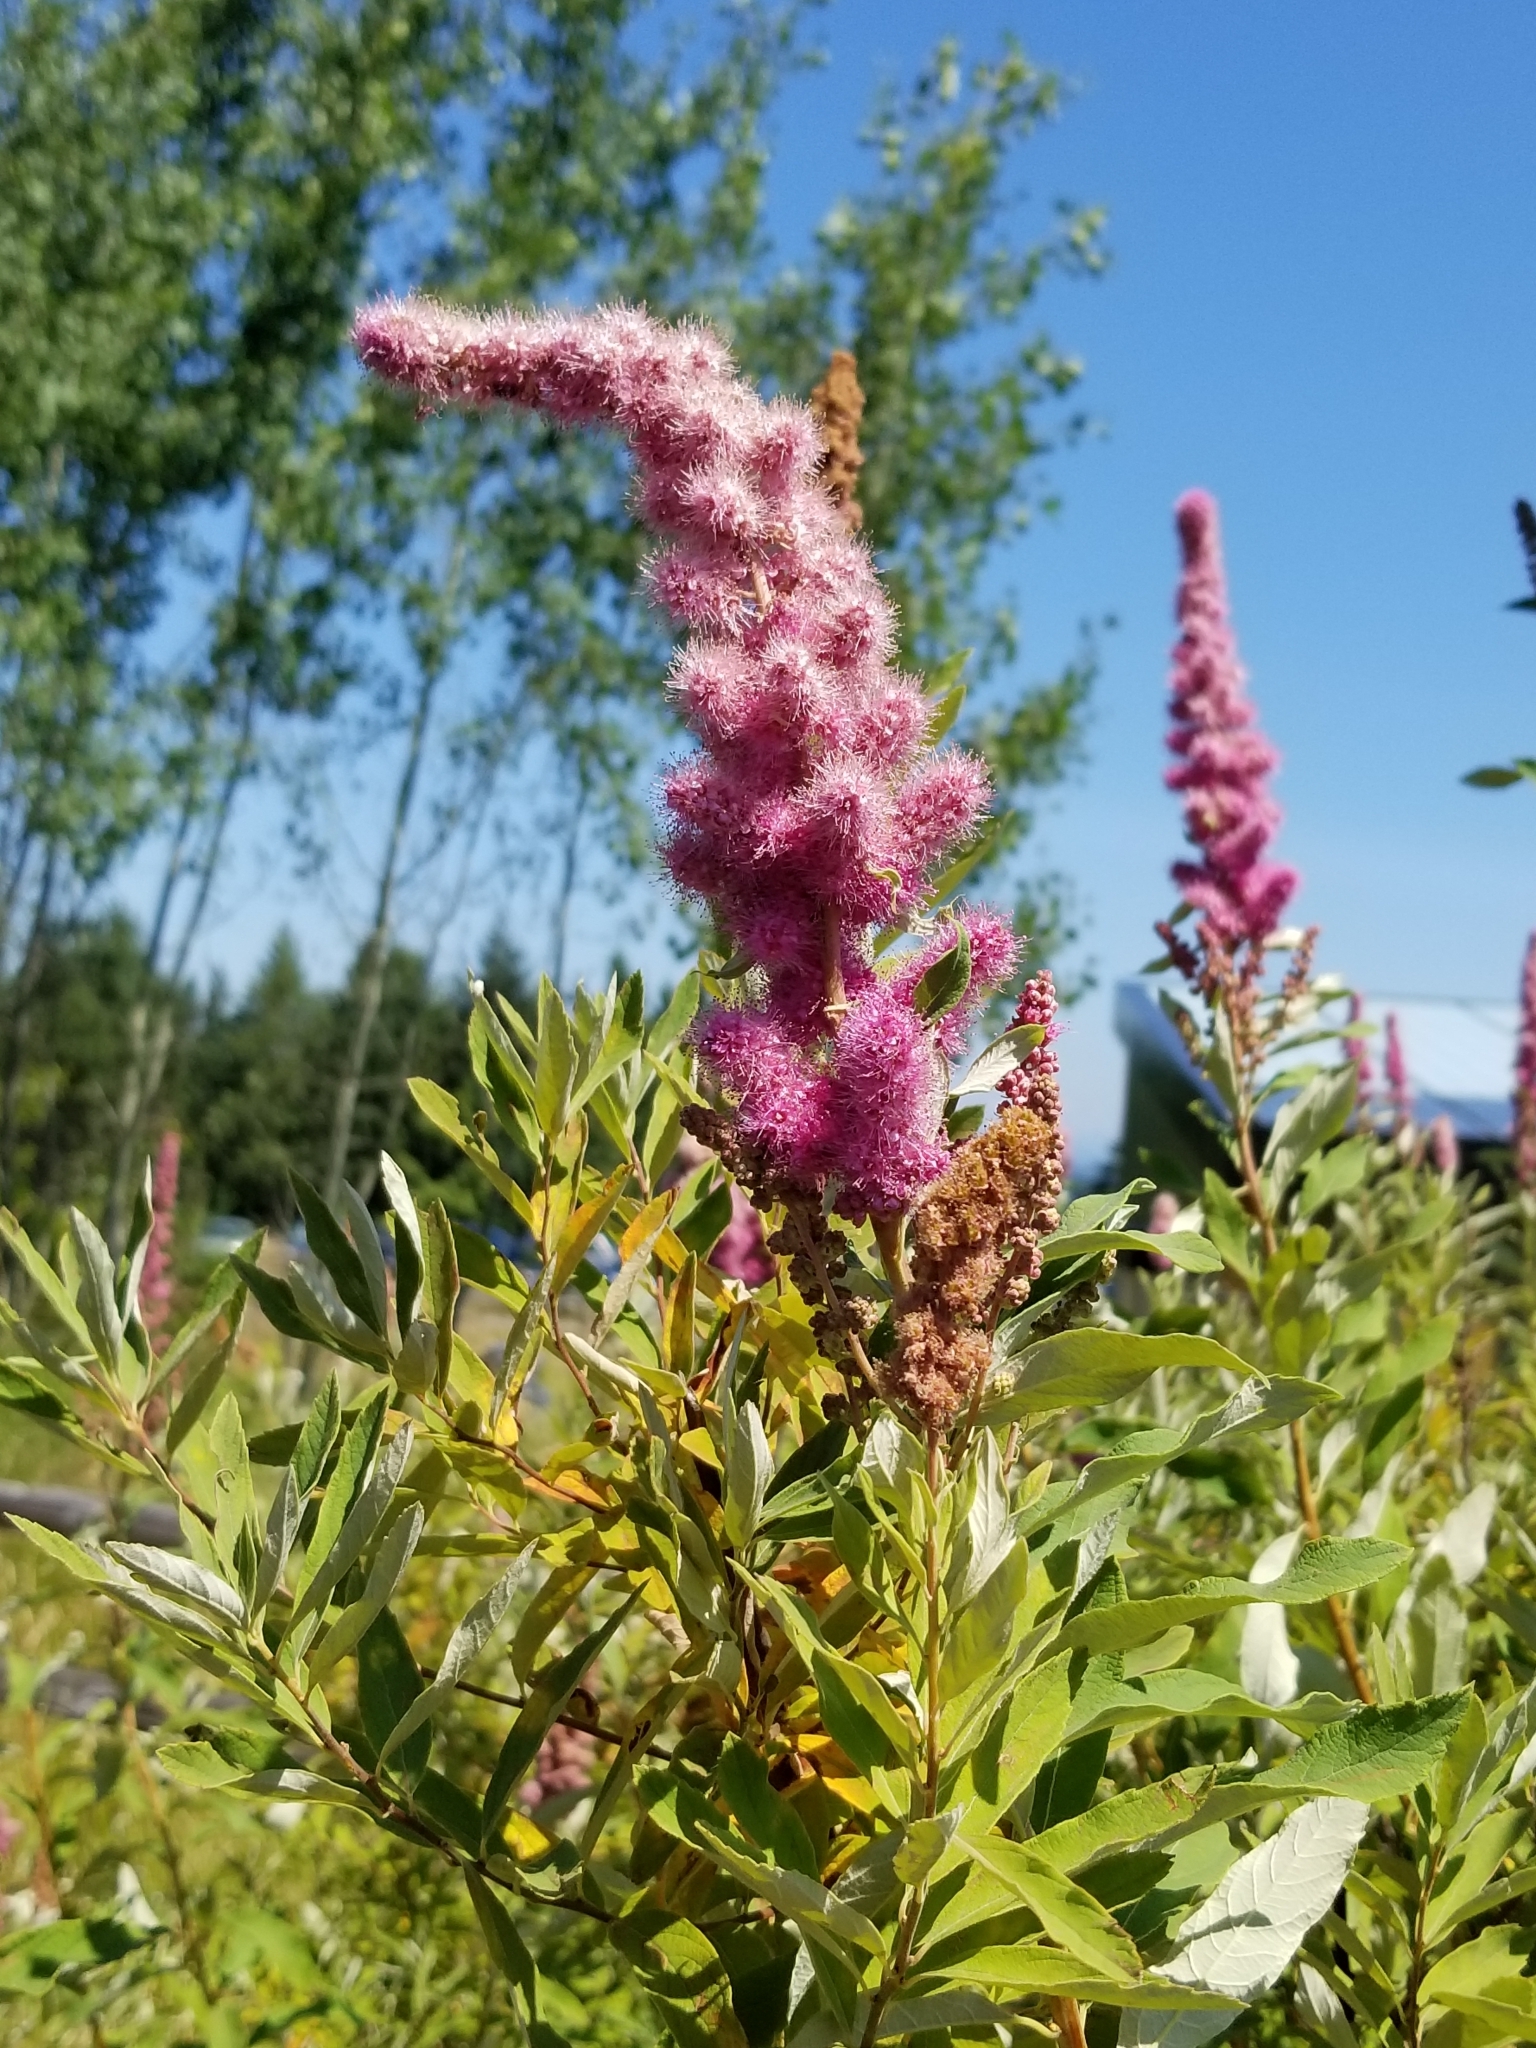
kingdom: Plantae
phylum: Tracheophyta
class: Magnoliopsida
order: Rosales
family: Rosaceae
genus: Spiraea
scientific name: Spiraea douglasii
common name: Steeplebush
